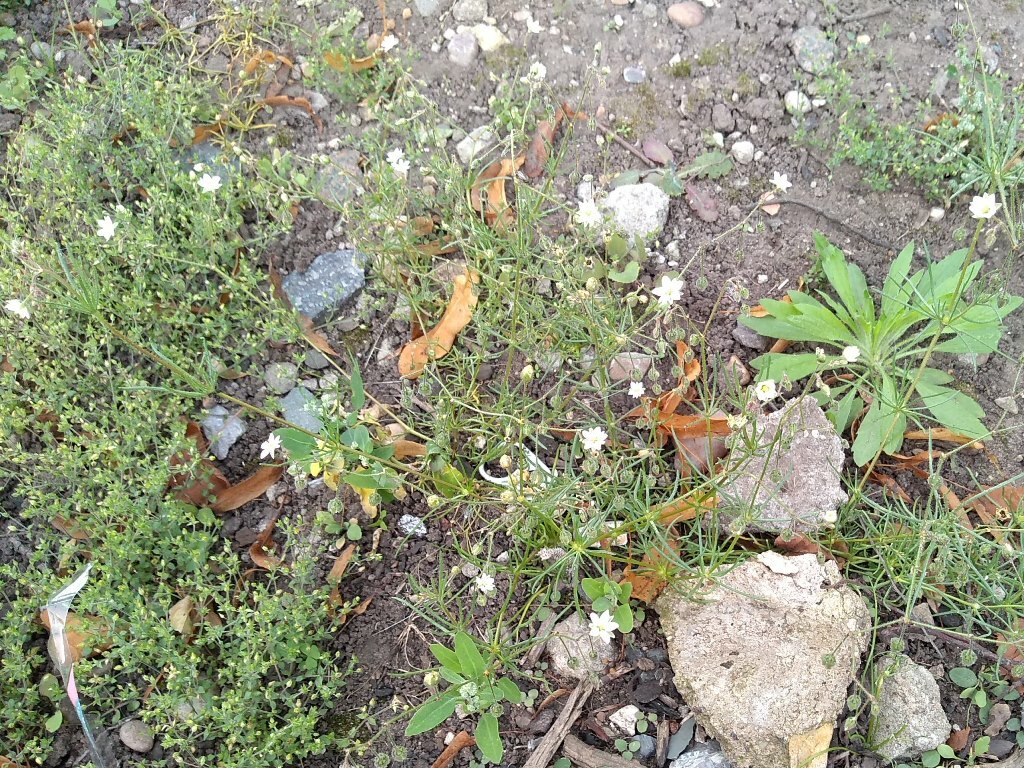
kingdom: Plantae
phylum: Tracheophyta
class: Magnoliopsida
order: Caryophyllales
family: Caryophyllaceae
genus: Spergula
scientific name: Spergula arvensis
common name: Corn spurrey
